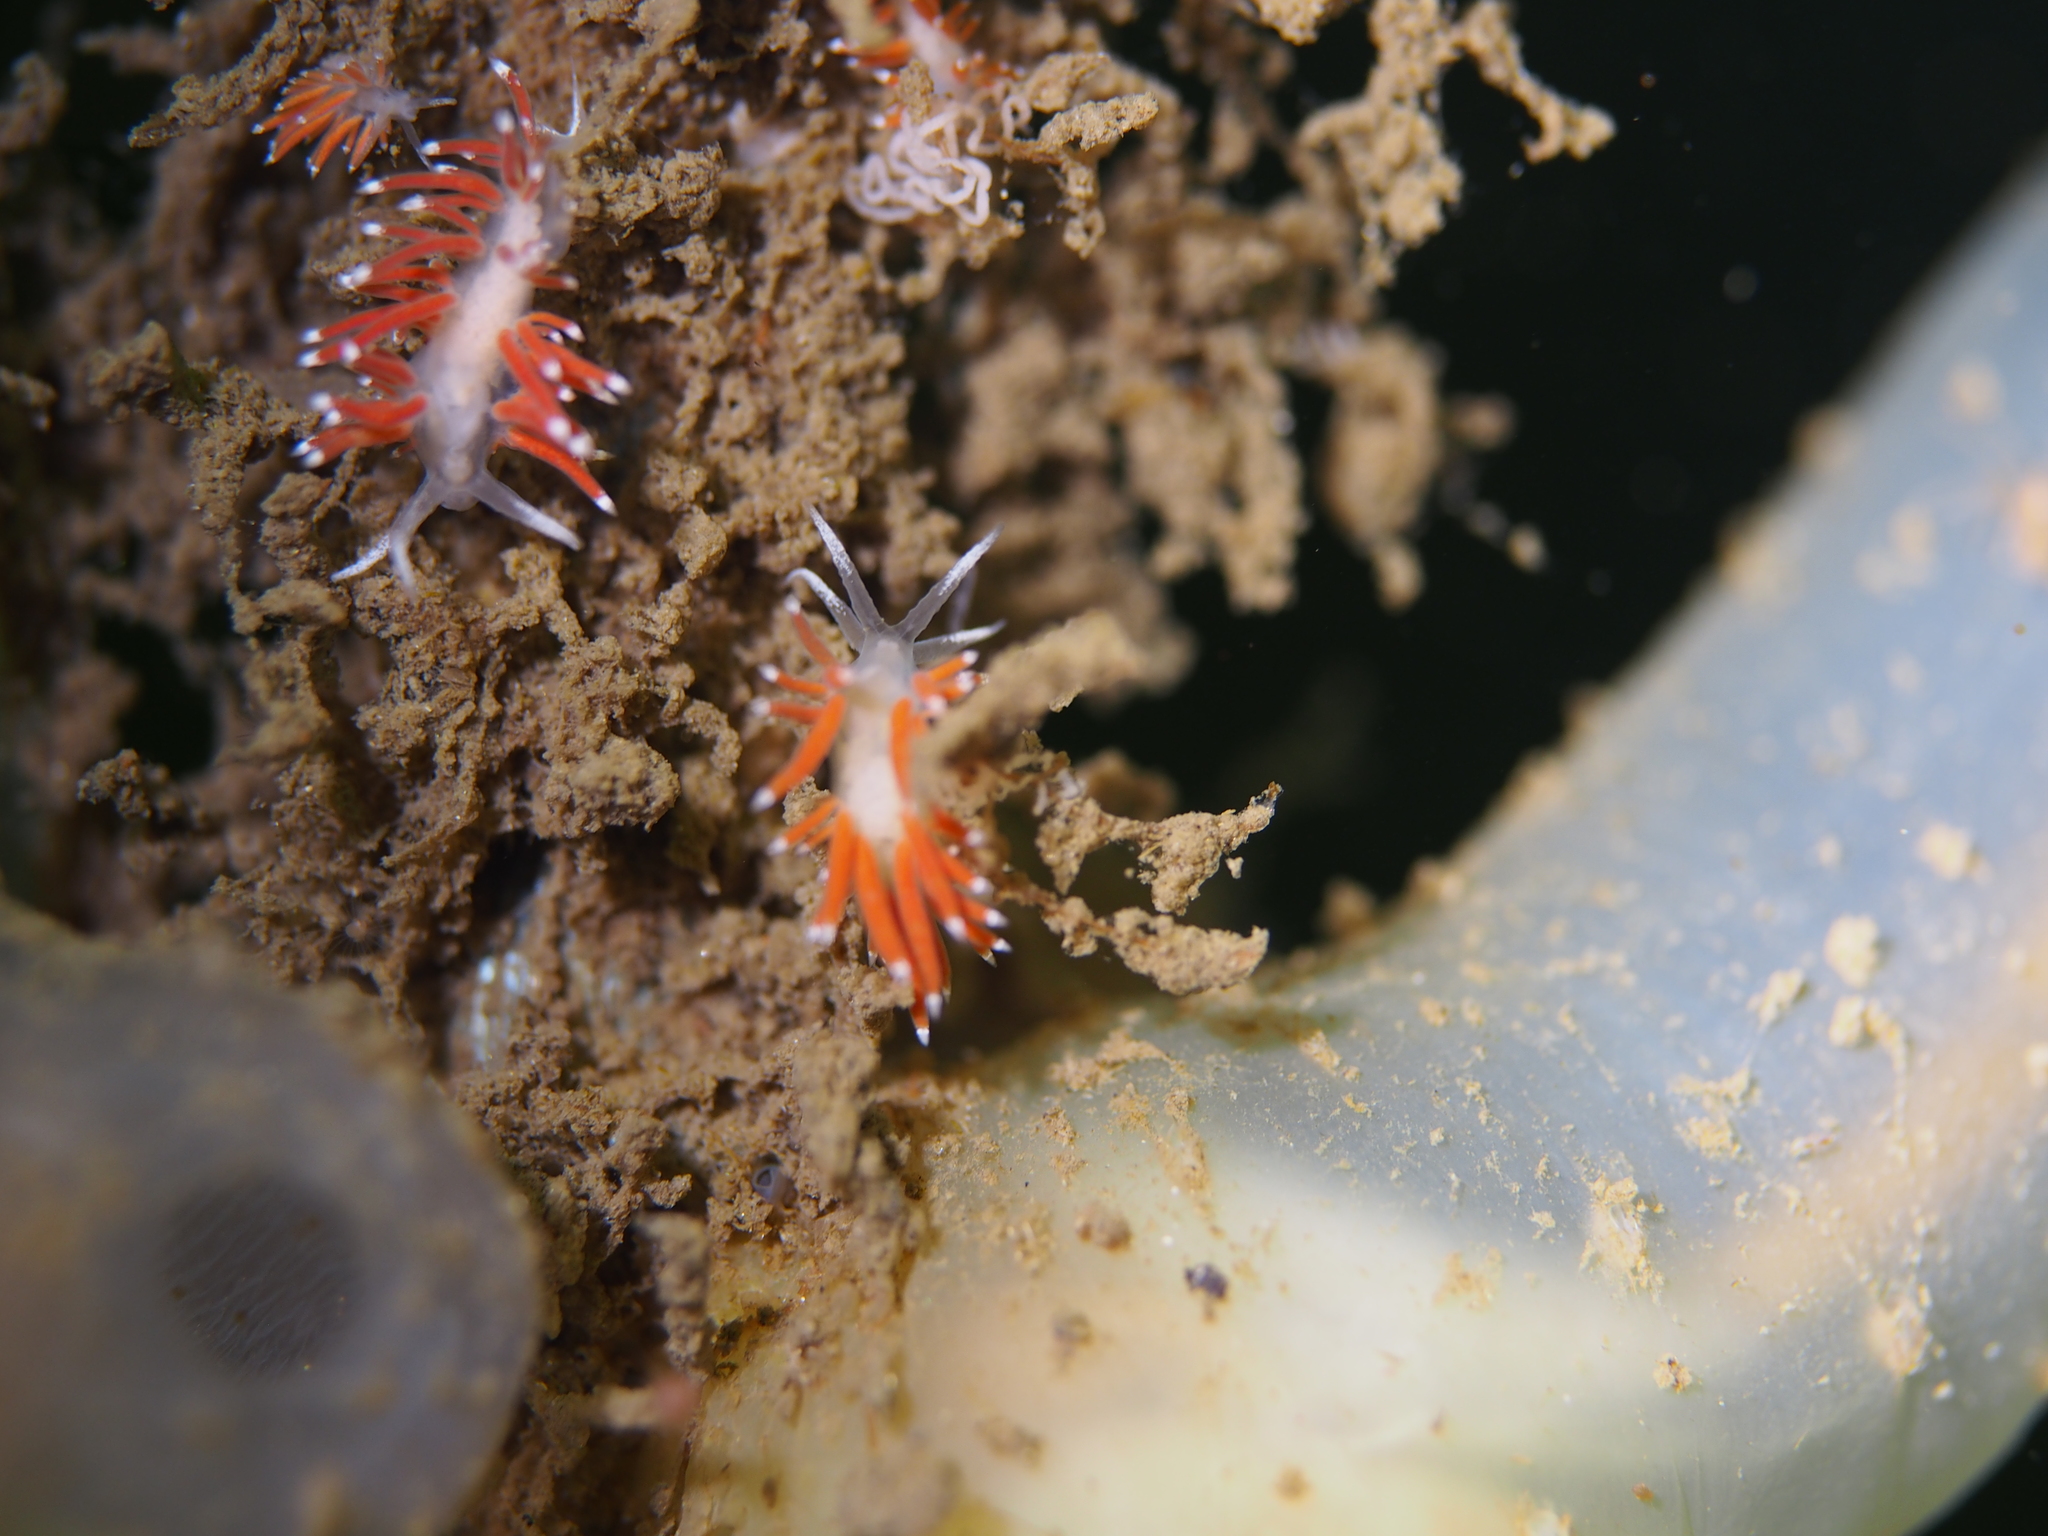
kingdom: Animalia
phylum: Mollusca
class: Gastropoda
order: Nudibranchia
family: Coryphellidae
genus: Coryphella
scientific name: Coryphella gracilis
